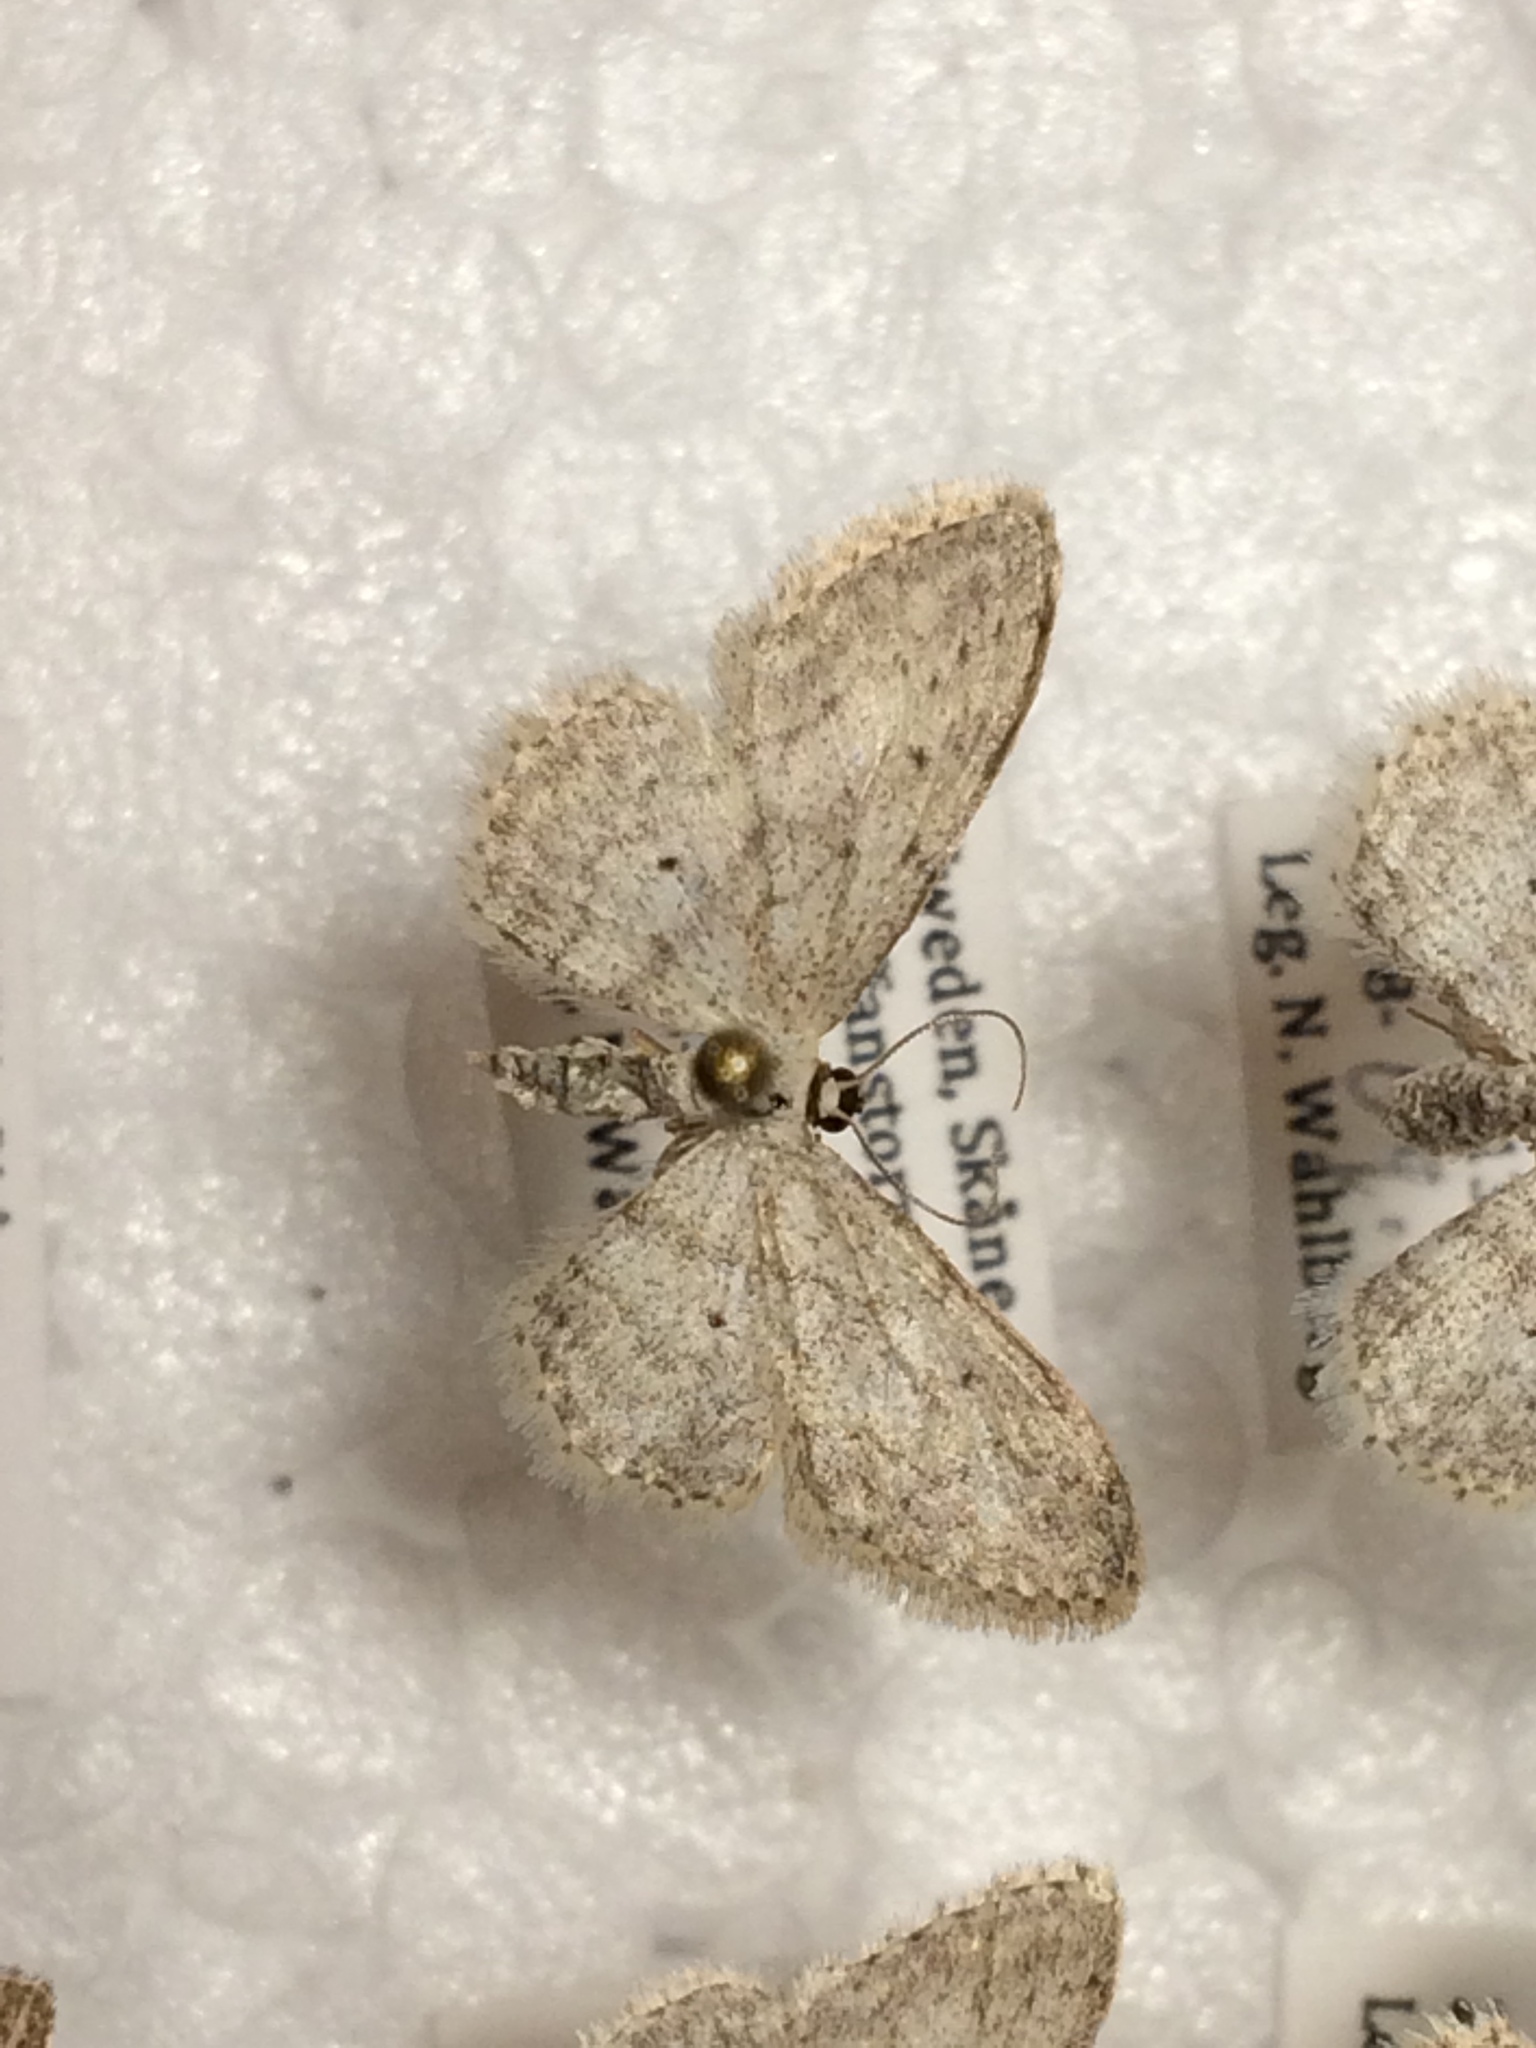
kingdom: Animalia
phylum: Arthropoda
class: Insecta
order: Lepidoptera
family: Geometridae
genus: Idaea
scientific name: Idaea seriata
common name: Small dusty wave
